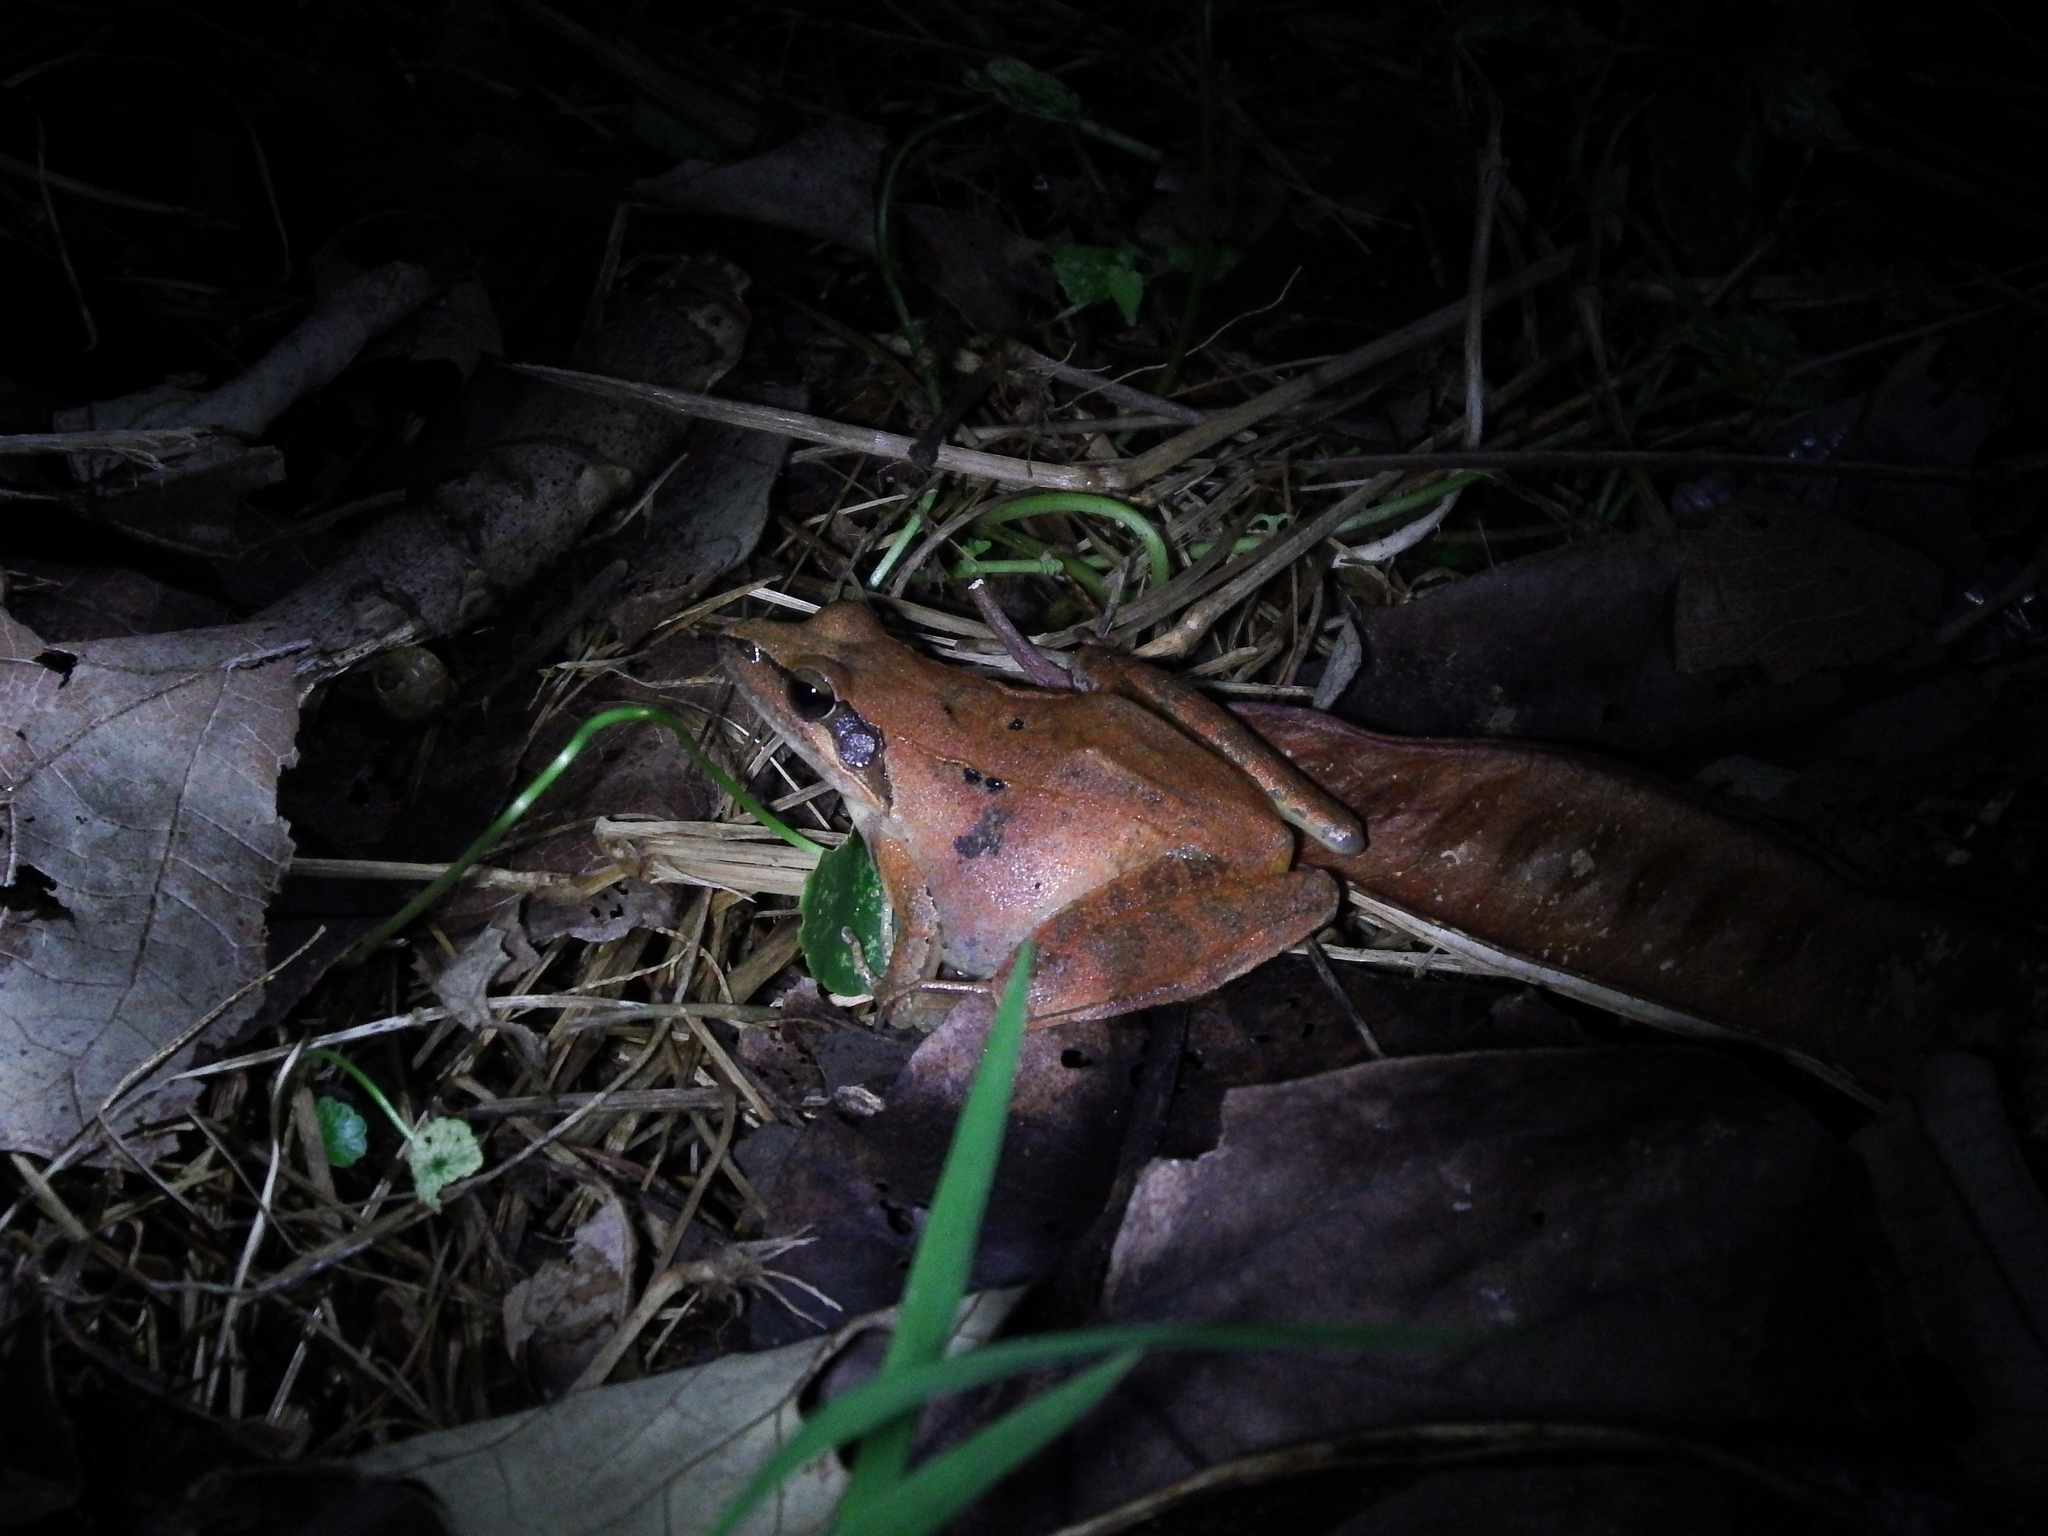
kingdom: Animalia
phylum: Chordata
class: Amphibia
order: Anura
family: Ranidae
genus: Rana
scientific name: Rana longicrus
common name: Long-legged brown frog
